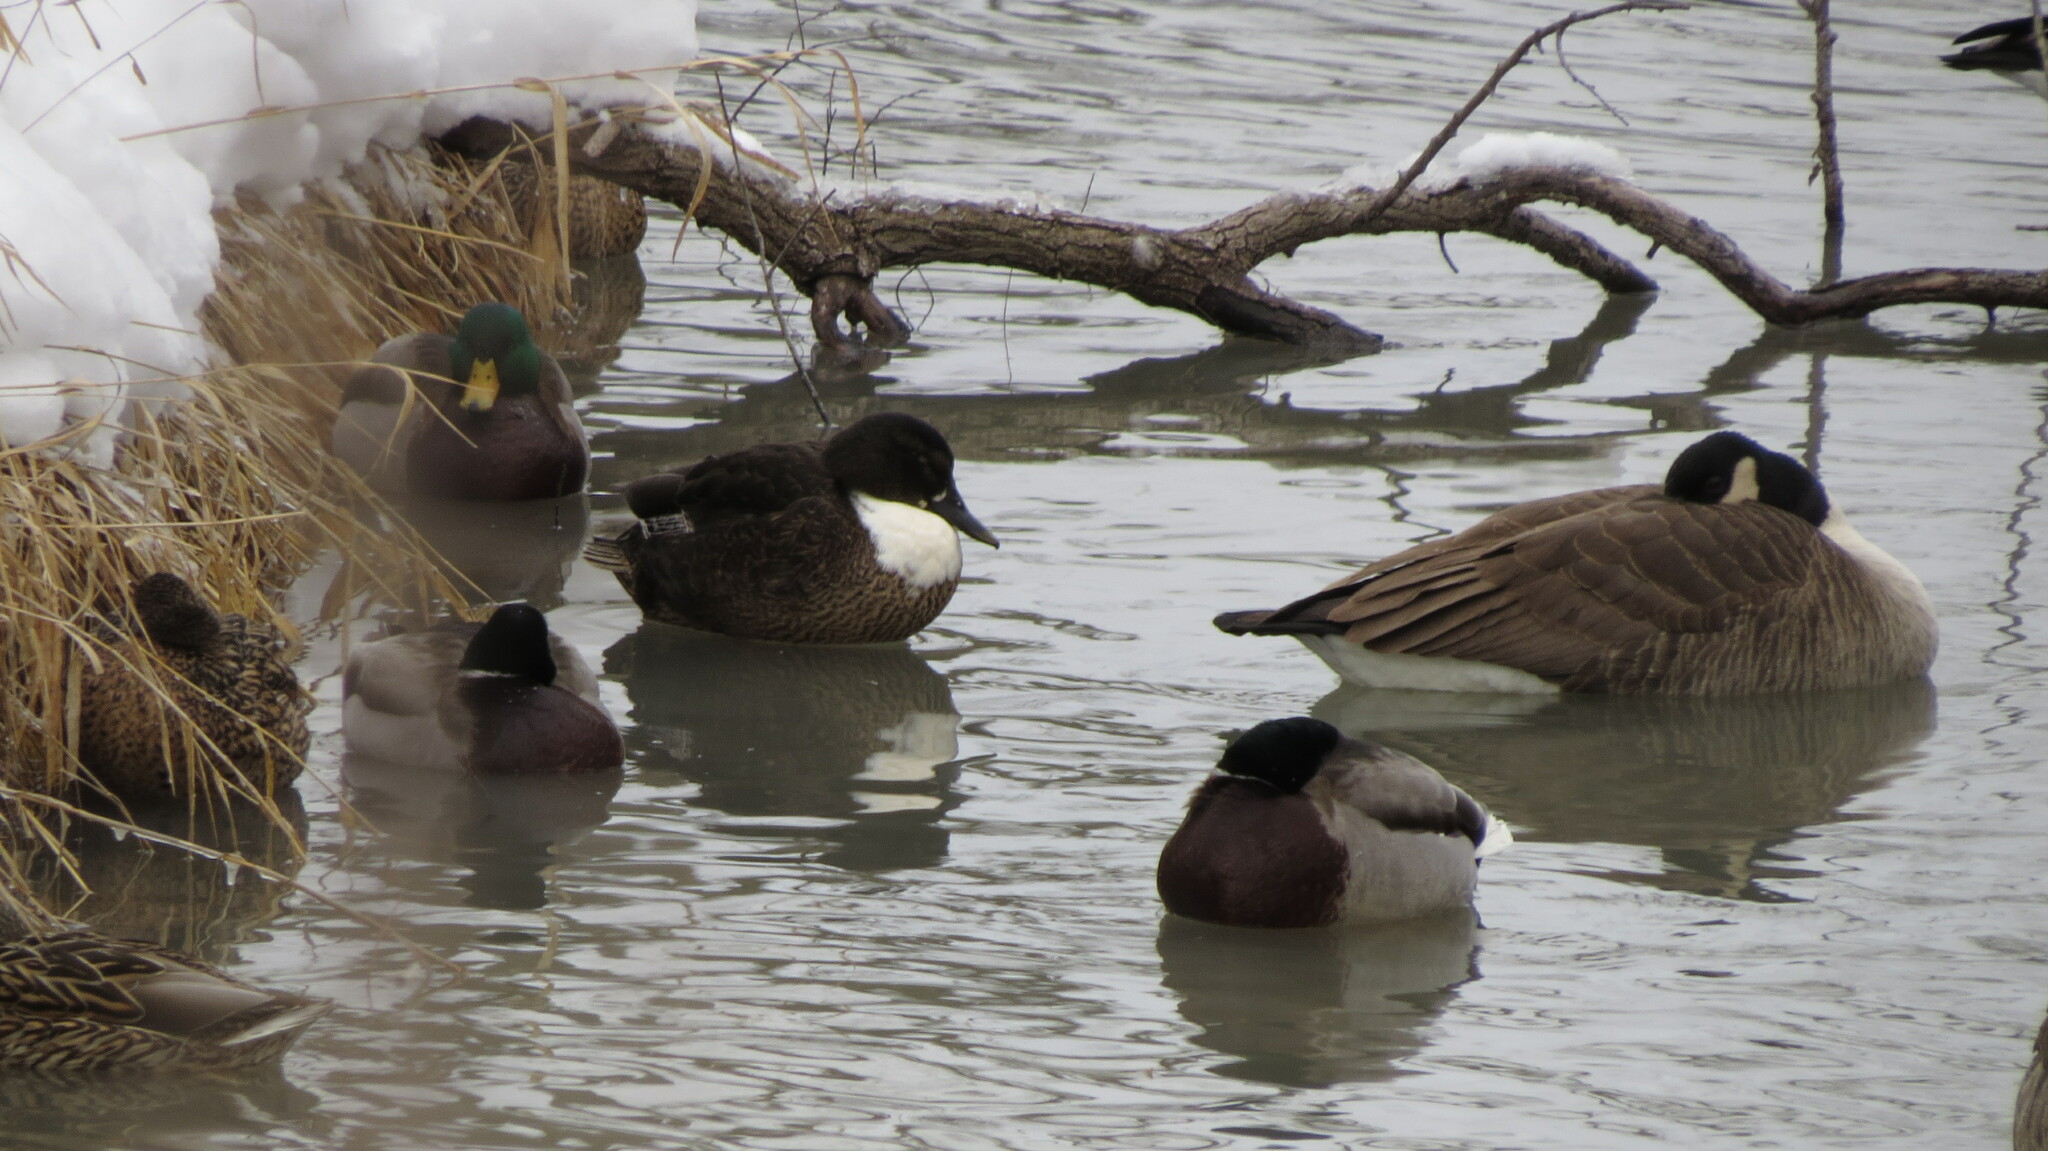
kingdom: Animalia
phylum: Chordata
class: Aves
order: Anseriformes
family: Anatidae
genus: Anas
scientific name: Anas platyrhynchos
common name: Mallard
